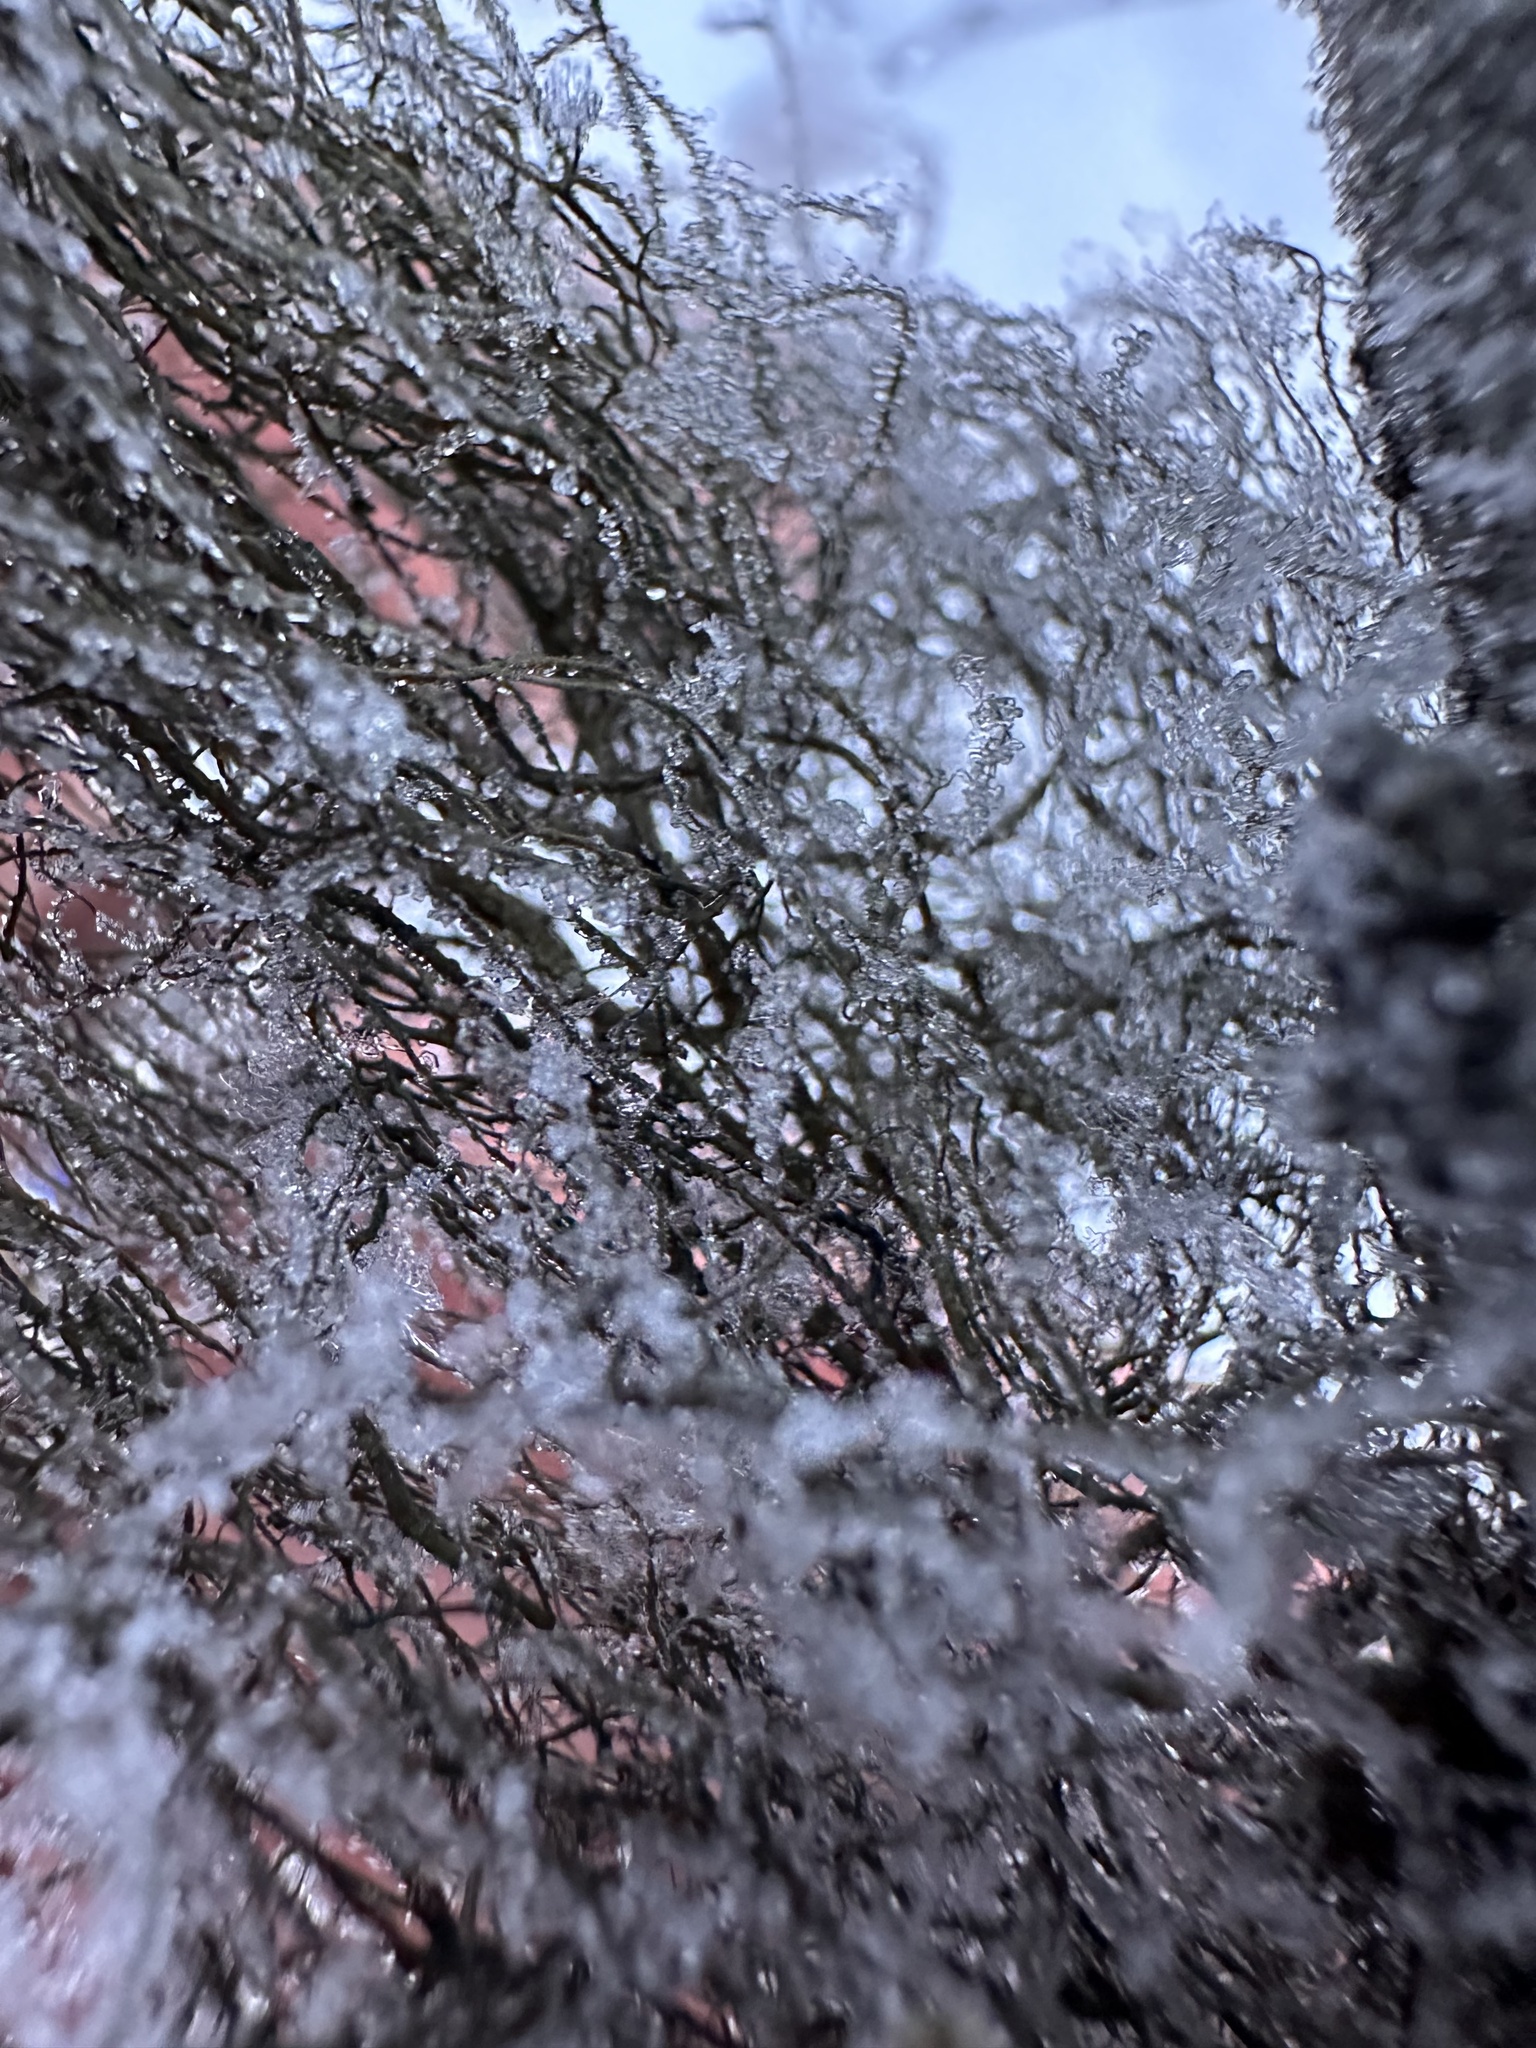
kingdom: Fungi
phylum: Ascomycota
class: Lecanoromycetes
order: Lecanorales
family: Parmeliaceae
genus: Bryoria
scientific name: Bryoria fuscescens
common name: Pale-footed horsehair lichen
